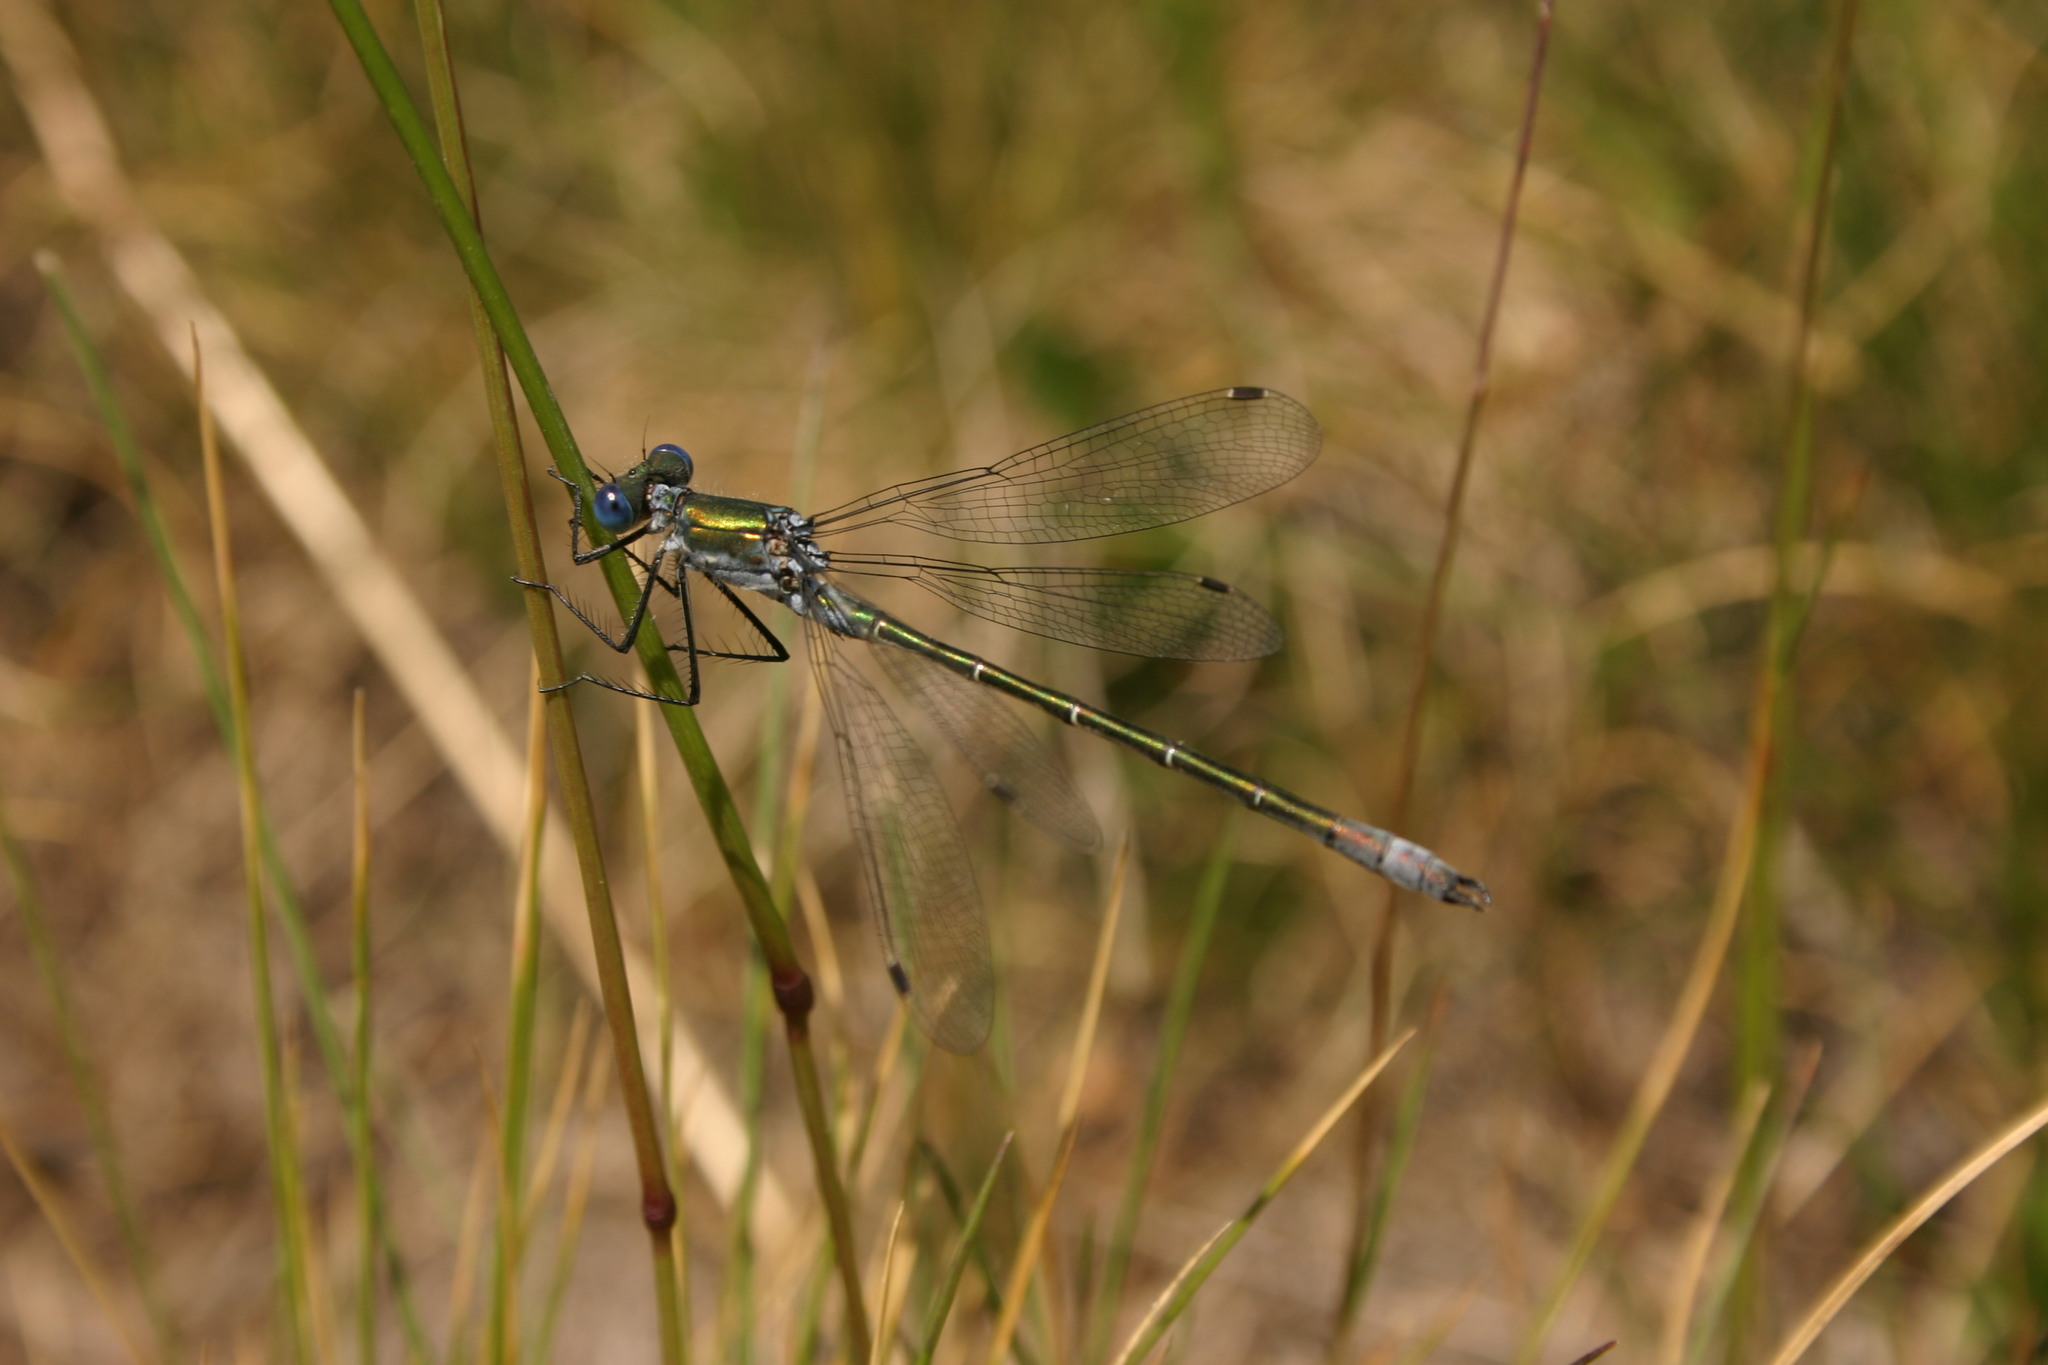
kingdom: Animalia
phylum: Arthropoda
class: Insecta
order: Odonata
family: Lestidae
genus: Lestes
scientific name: Lestes dryas
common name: Scarce emerald damselfly
